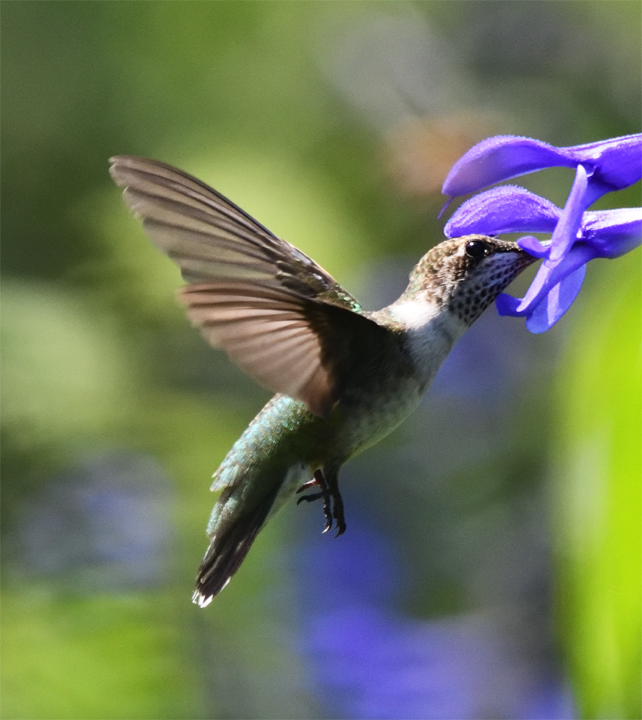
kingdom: Animalia
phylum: Chordata
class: Aves
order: Apodiformes
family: Trochilidae
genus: Archilochus
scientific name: Archilochus colubris
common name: Ruby-throated hummingbird
